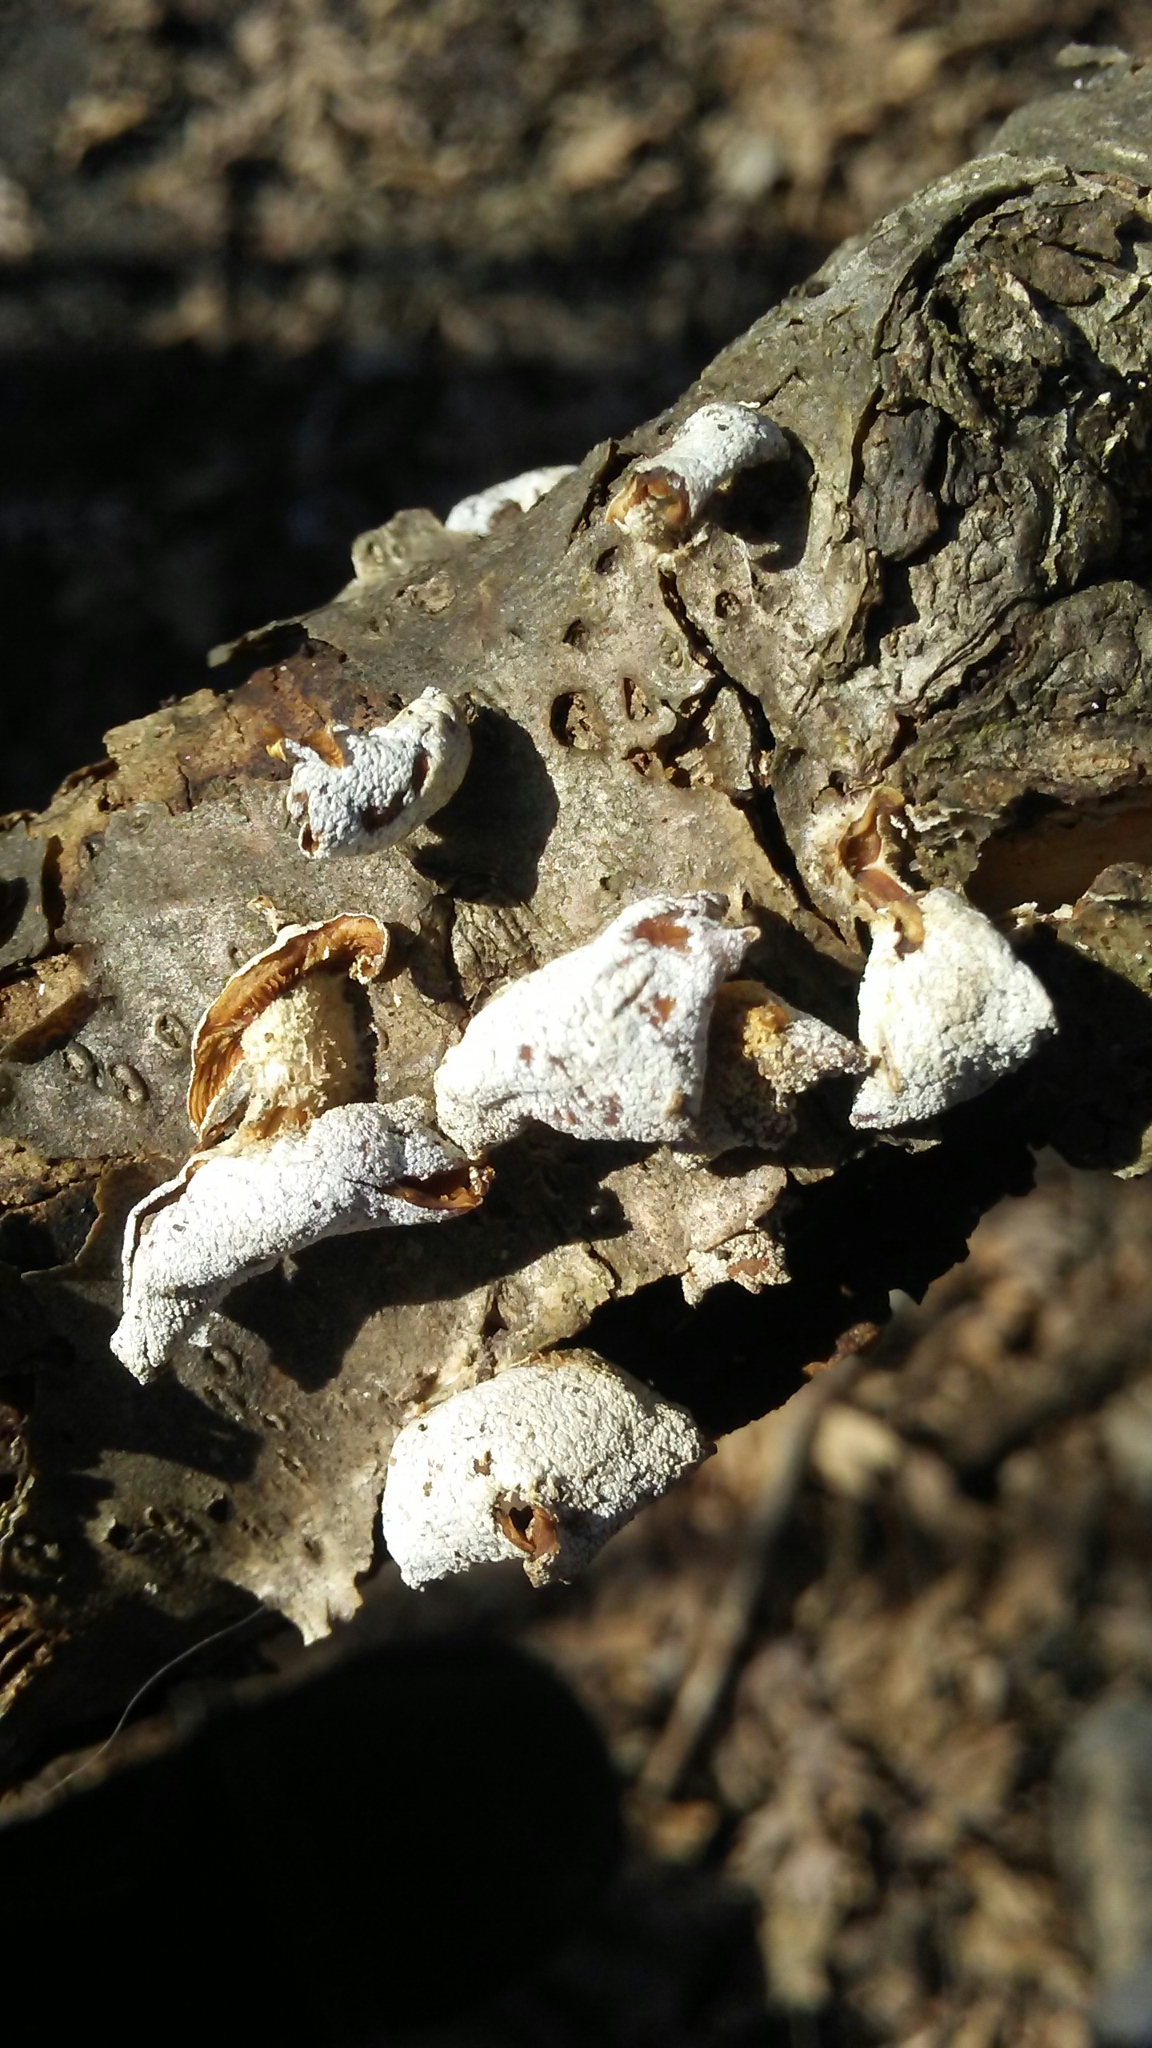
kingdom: Fungi
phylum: Basidiomycota
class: Agaricomycetes
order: Agaricales
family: Schizophyllaceae
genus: Schizophyllum
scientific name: Schizophyllum commune
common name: Common porecrust
